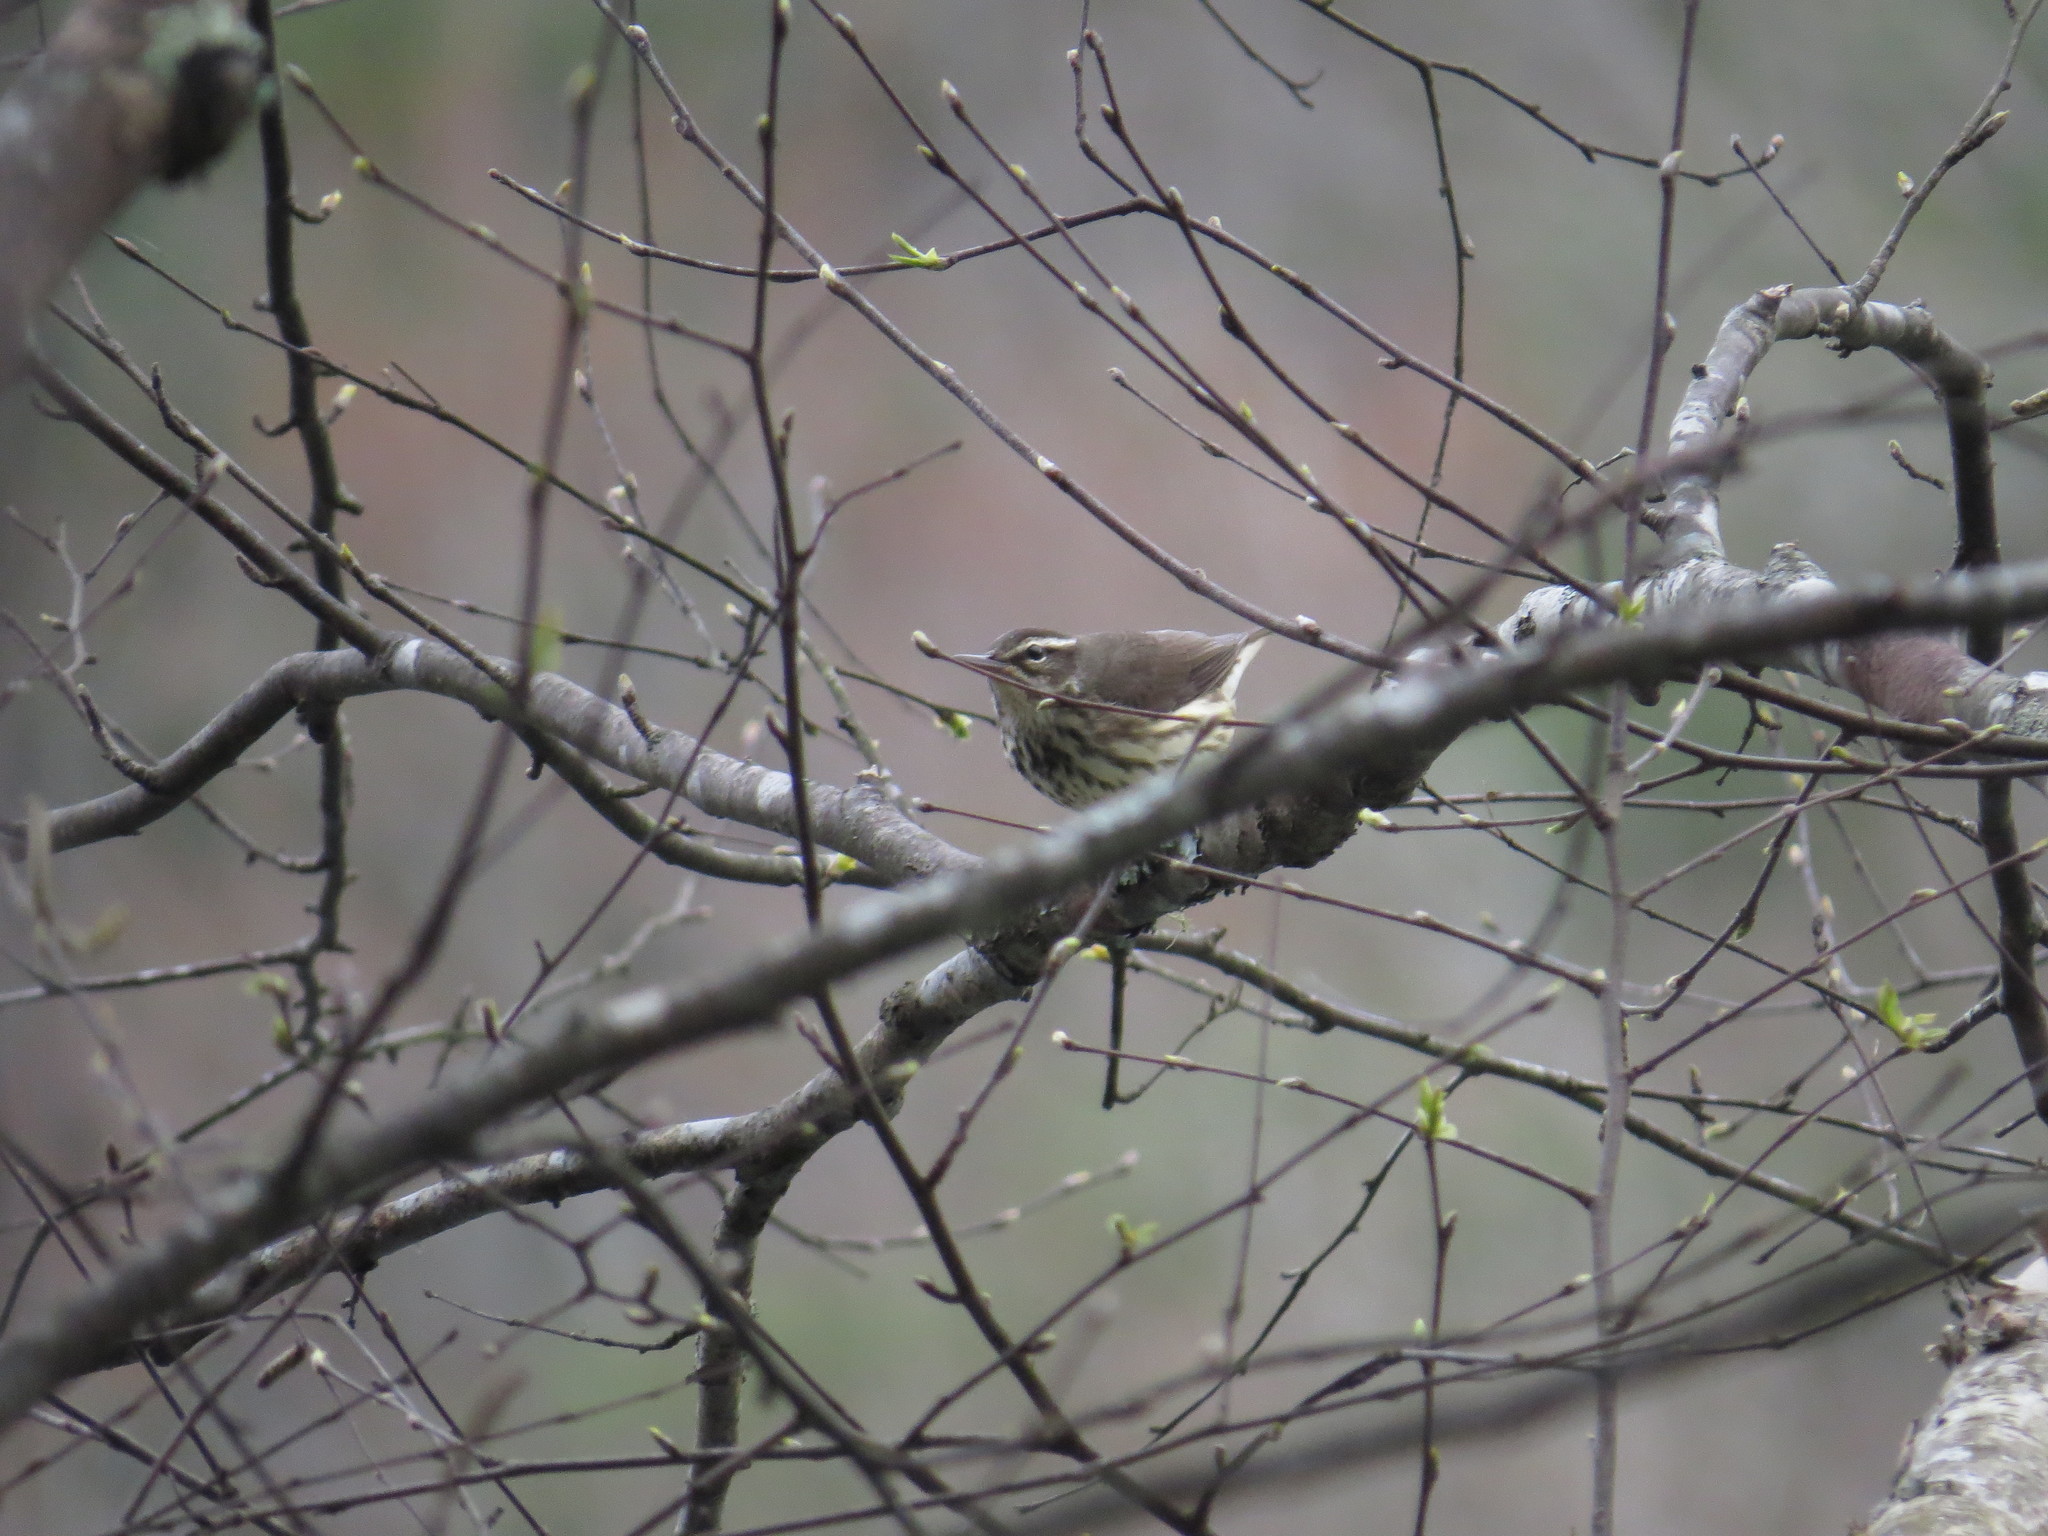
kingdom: Animalia
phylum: Chordata
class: Aves
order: Passeriformes
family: Parulidae
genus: Parkesia
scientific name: Parkesia motacilla
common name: Louisiana waterthrush
